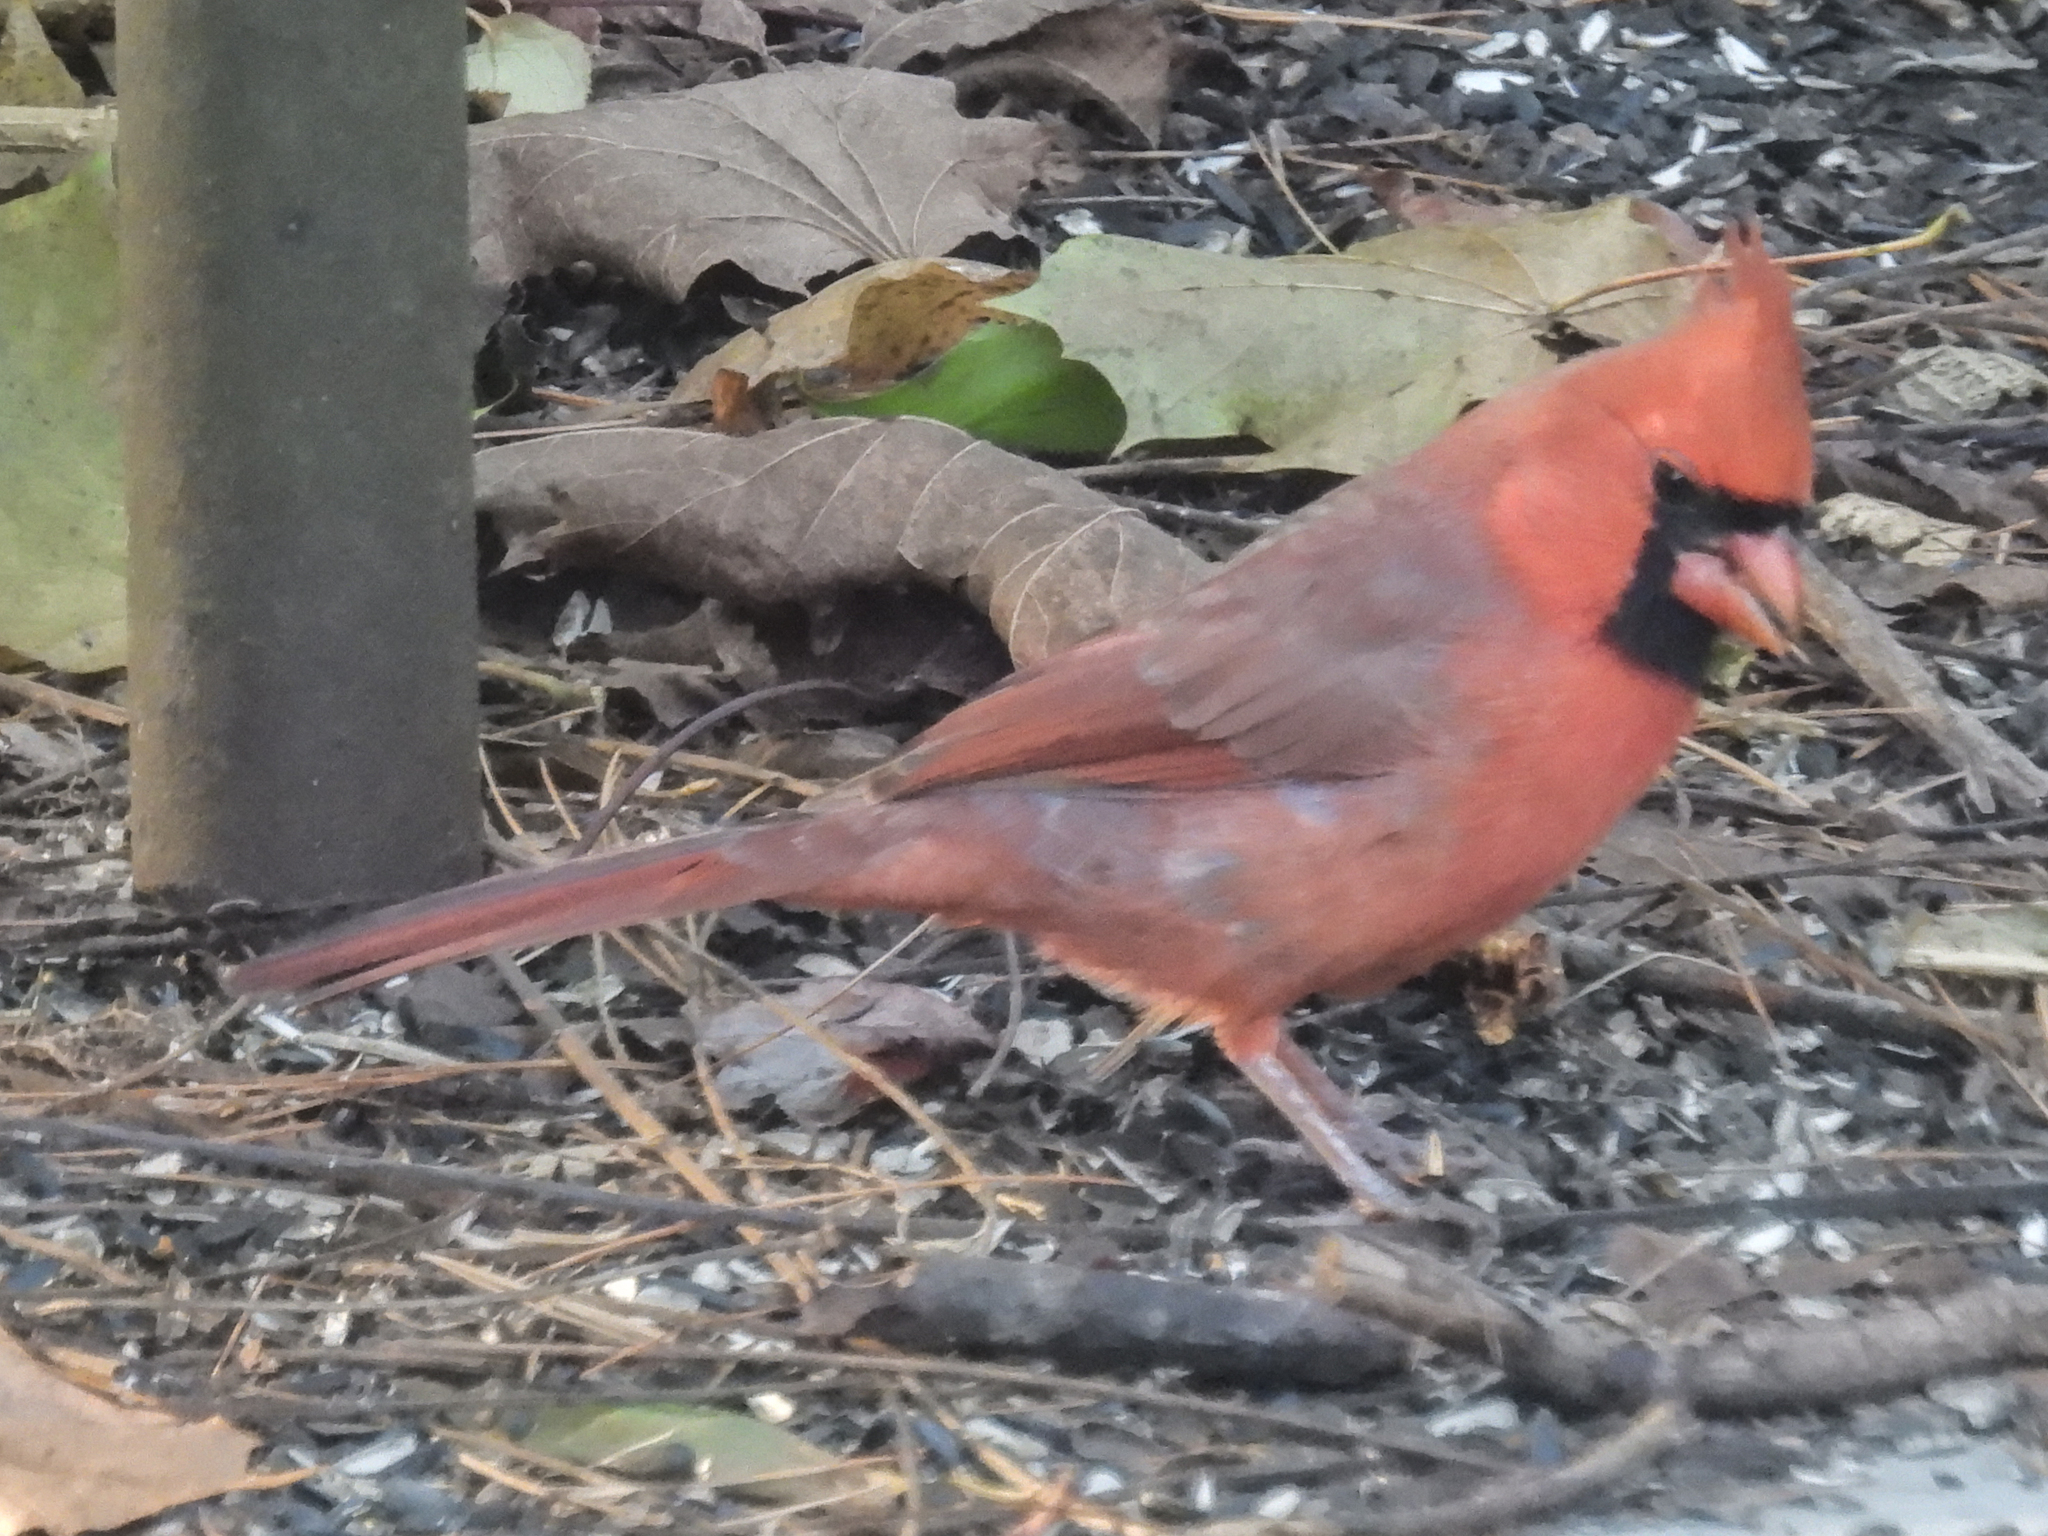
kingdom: Animalia
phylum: Chordata
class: Aves
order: Passeriformes
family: Cardinalidae
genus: Cardinalis
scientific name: Cardinalis cardinalis
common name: Northern cardinal
